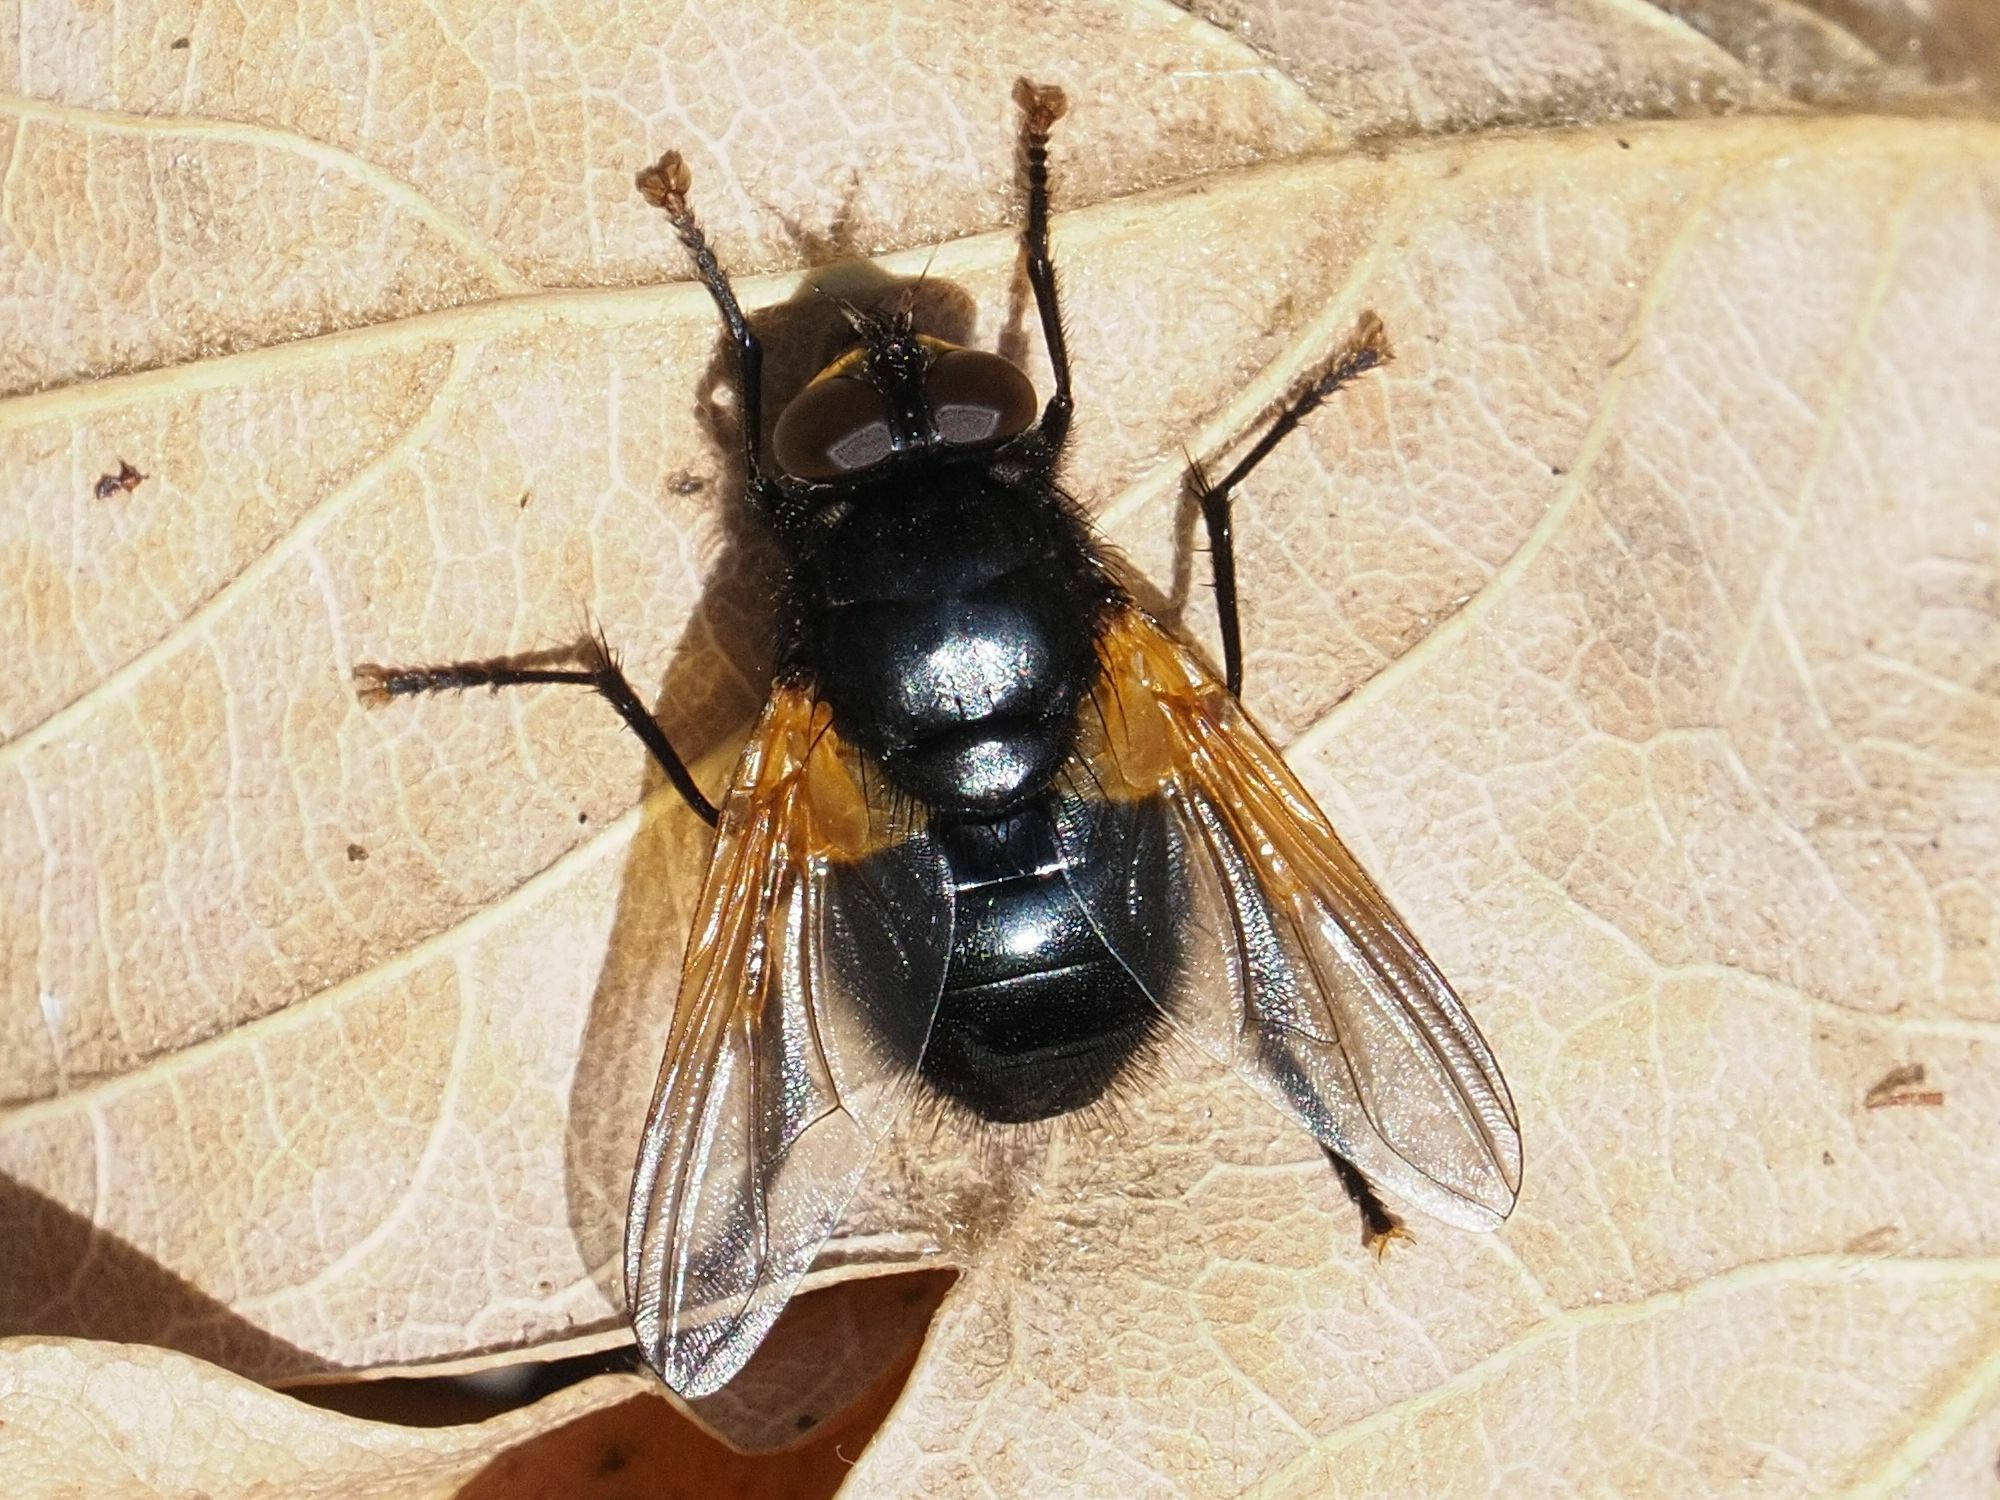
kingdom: Animalia
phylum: Arthropoda
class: Insecta
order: Diptera
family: Muscidae
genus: Mesembrina
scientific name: Mesembrina meridiana
